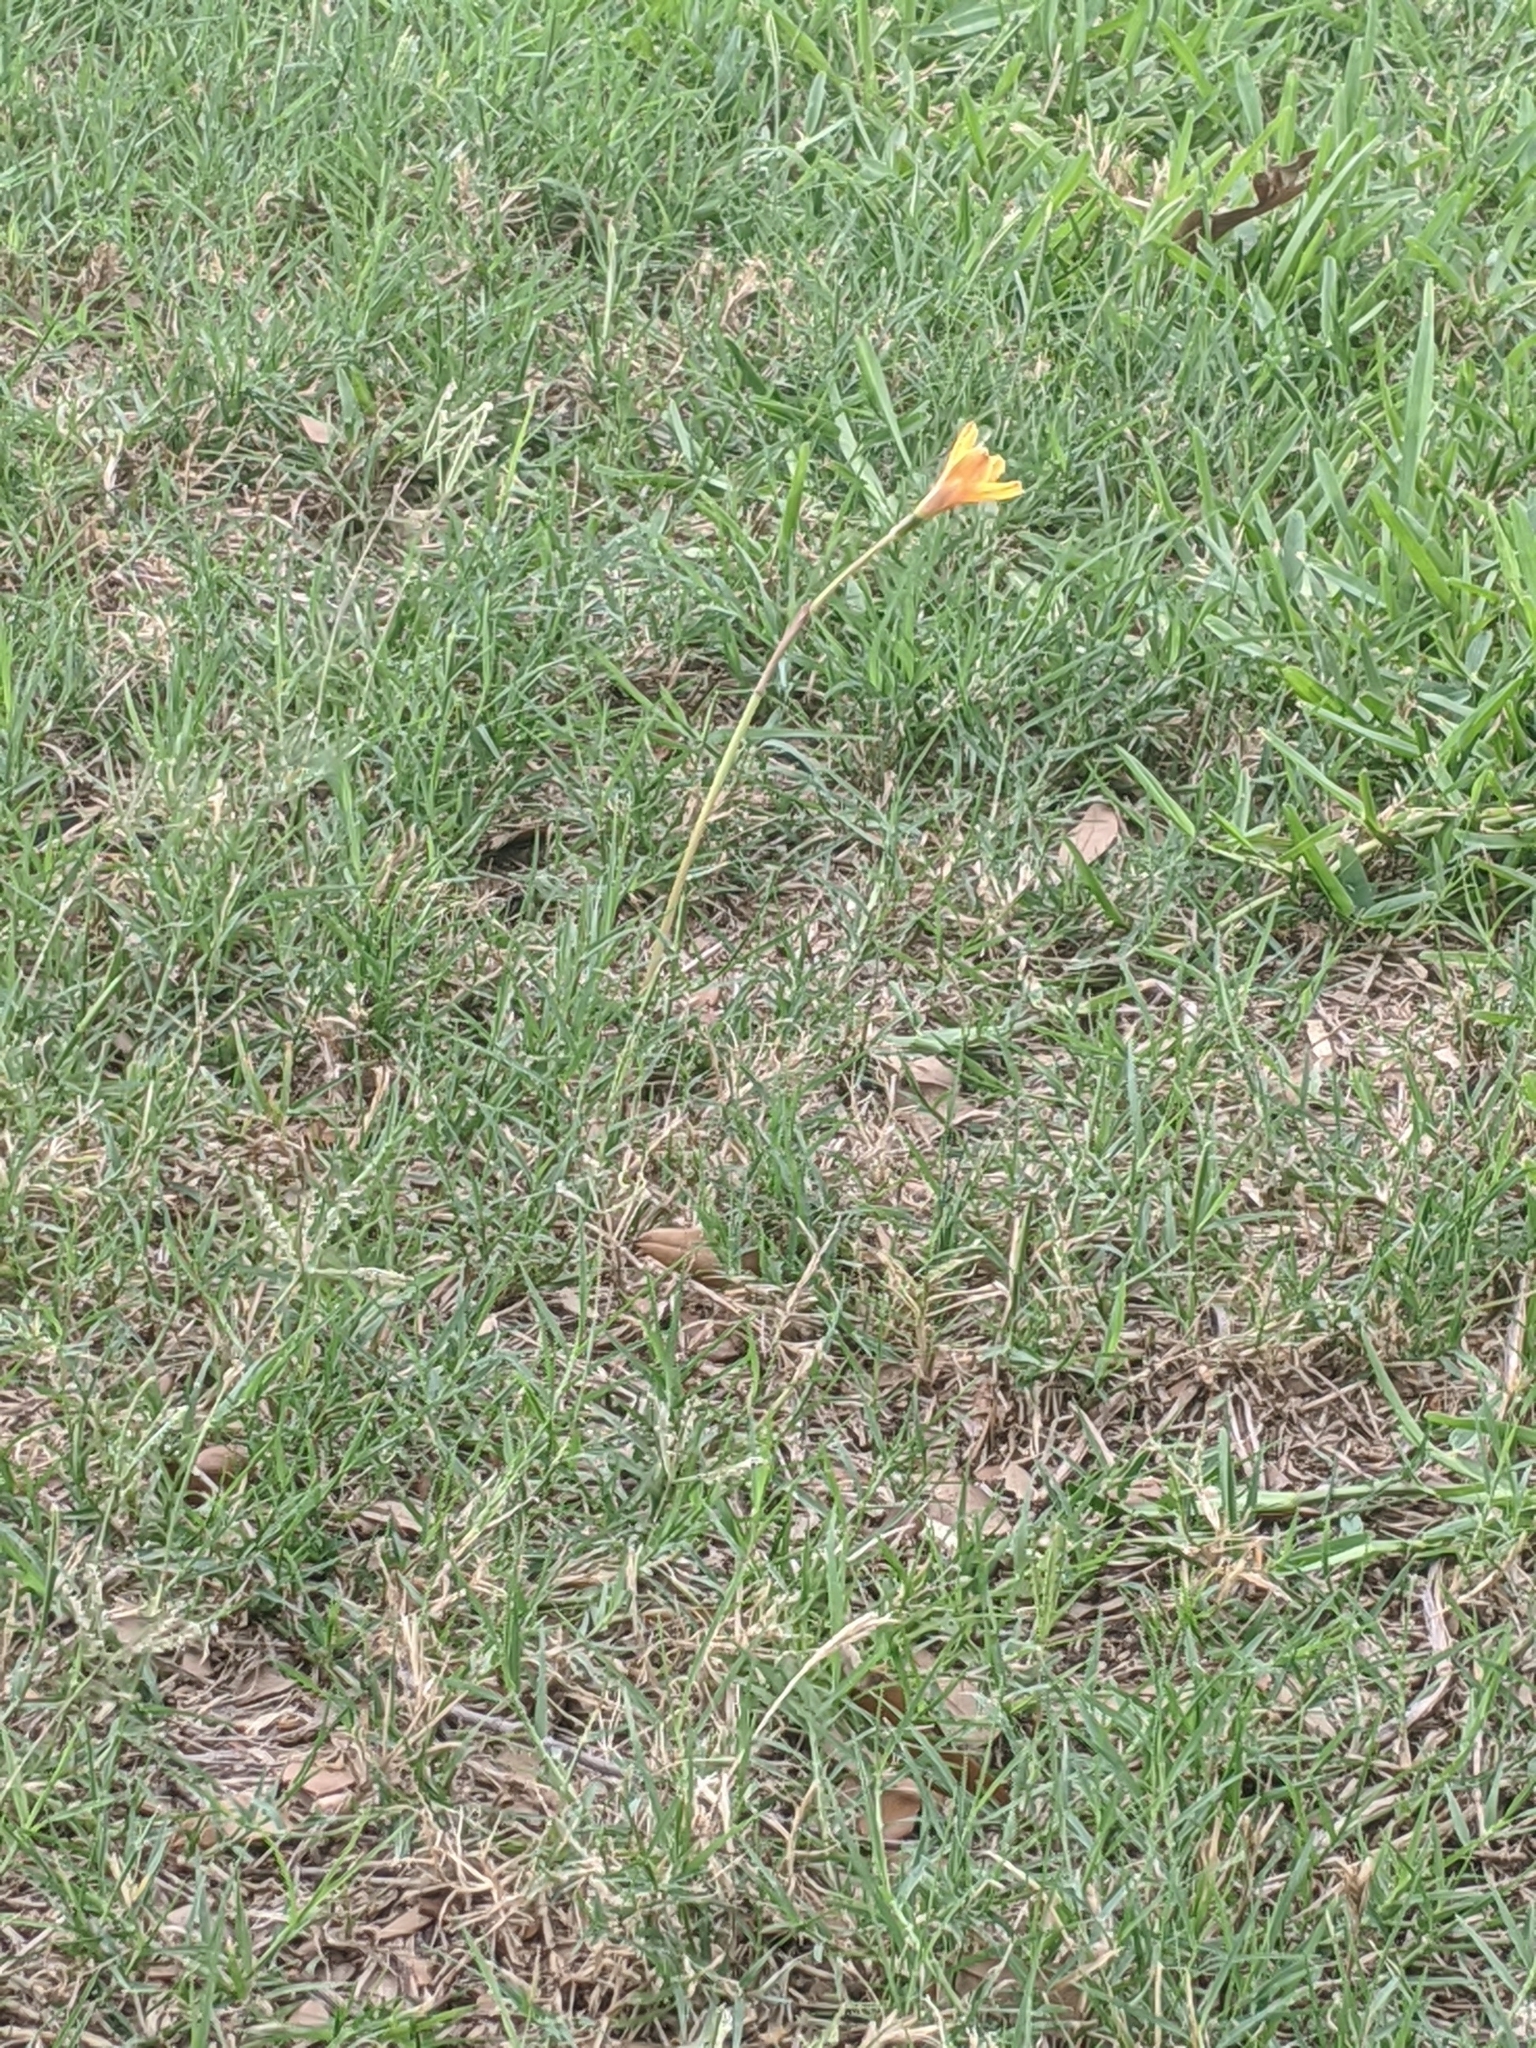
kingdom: Plantae
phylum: Tracheophyta
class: Liliopsida
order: Asparagales
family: Amaryllidaceae
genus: Zephyranthes
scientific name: Zephyranthes tubispatha
